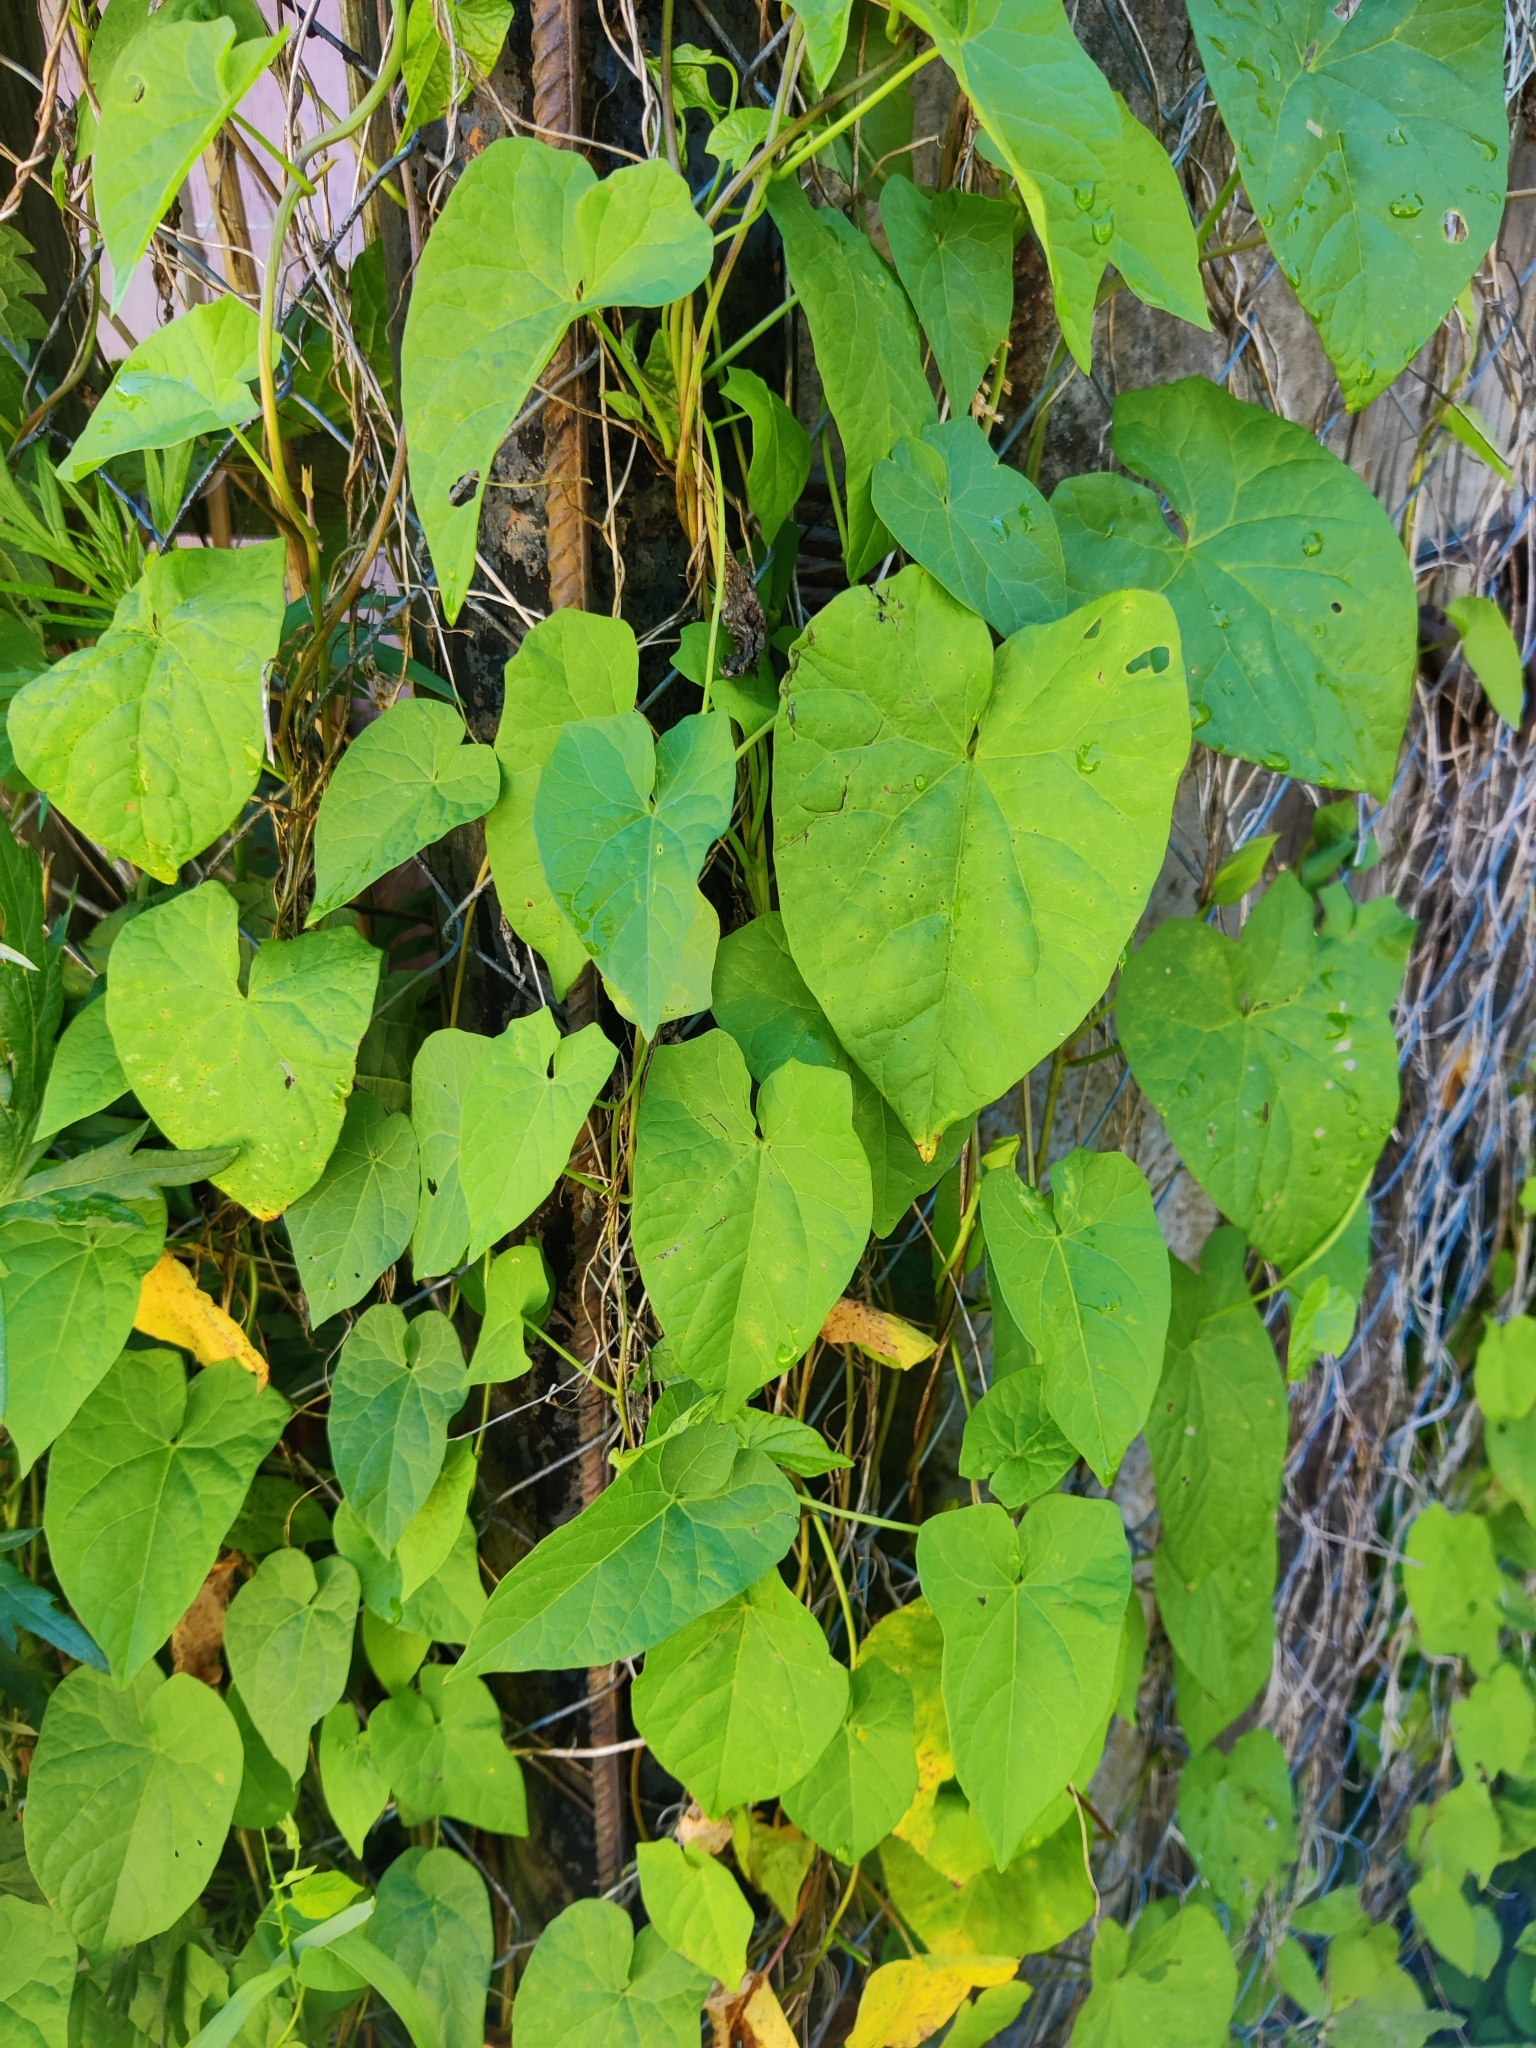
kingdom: Plantae
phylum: Tracheophyta
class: Magnoliopsida
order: Solanales
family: Convolvulaceae
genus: Calystegia
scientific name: Calystegia sepium
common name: Hedge bindweed
